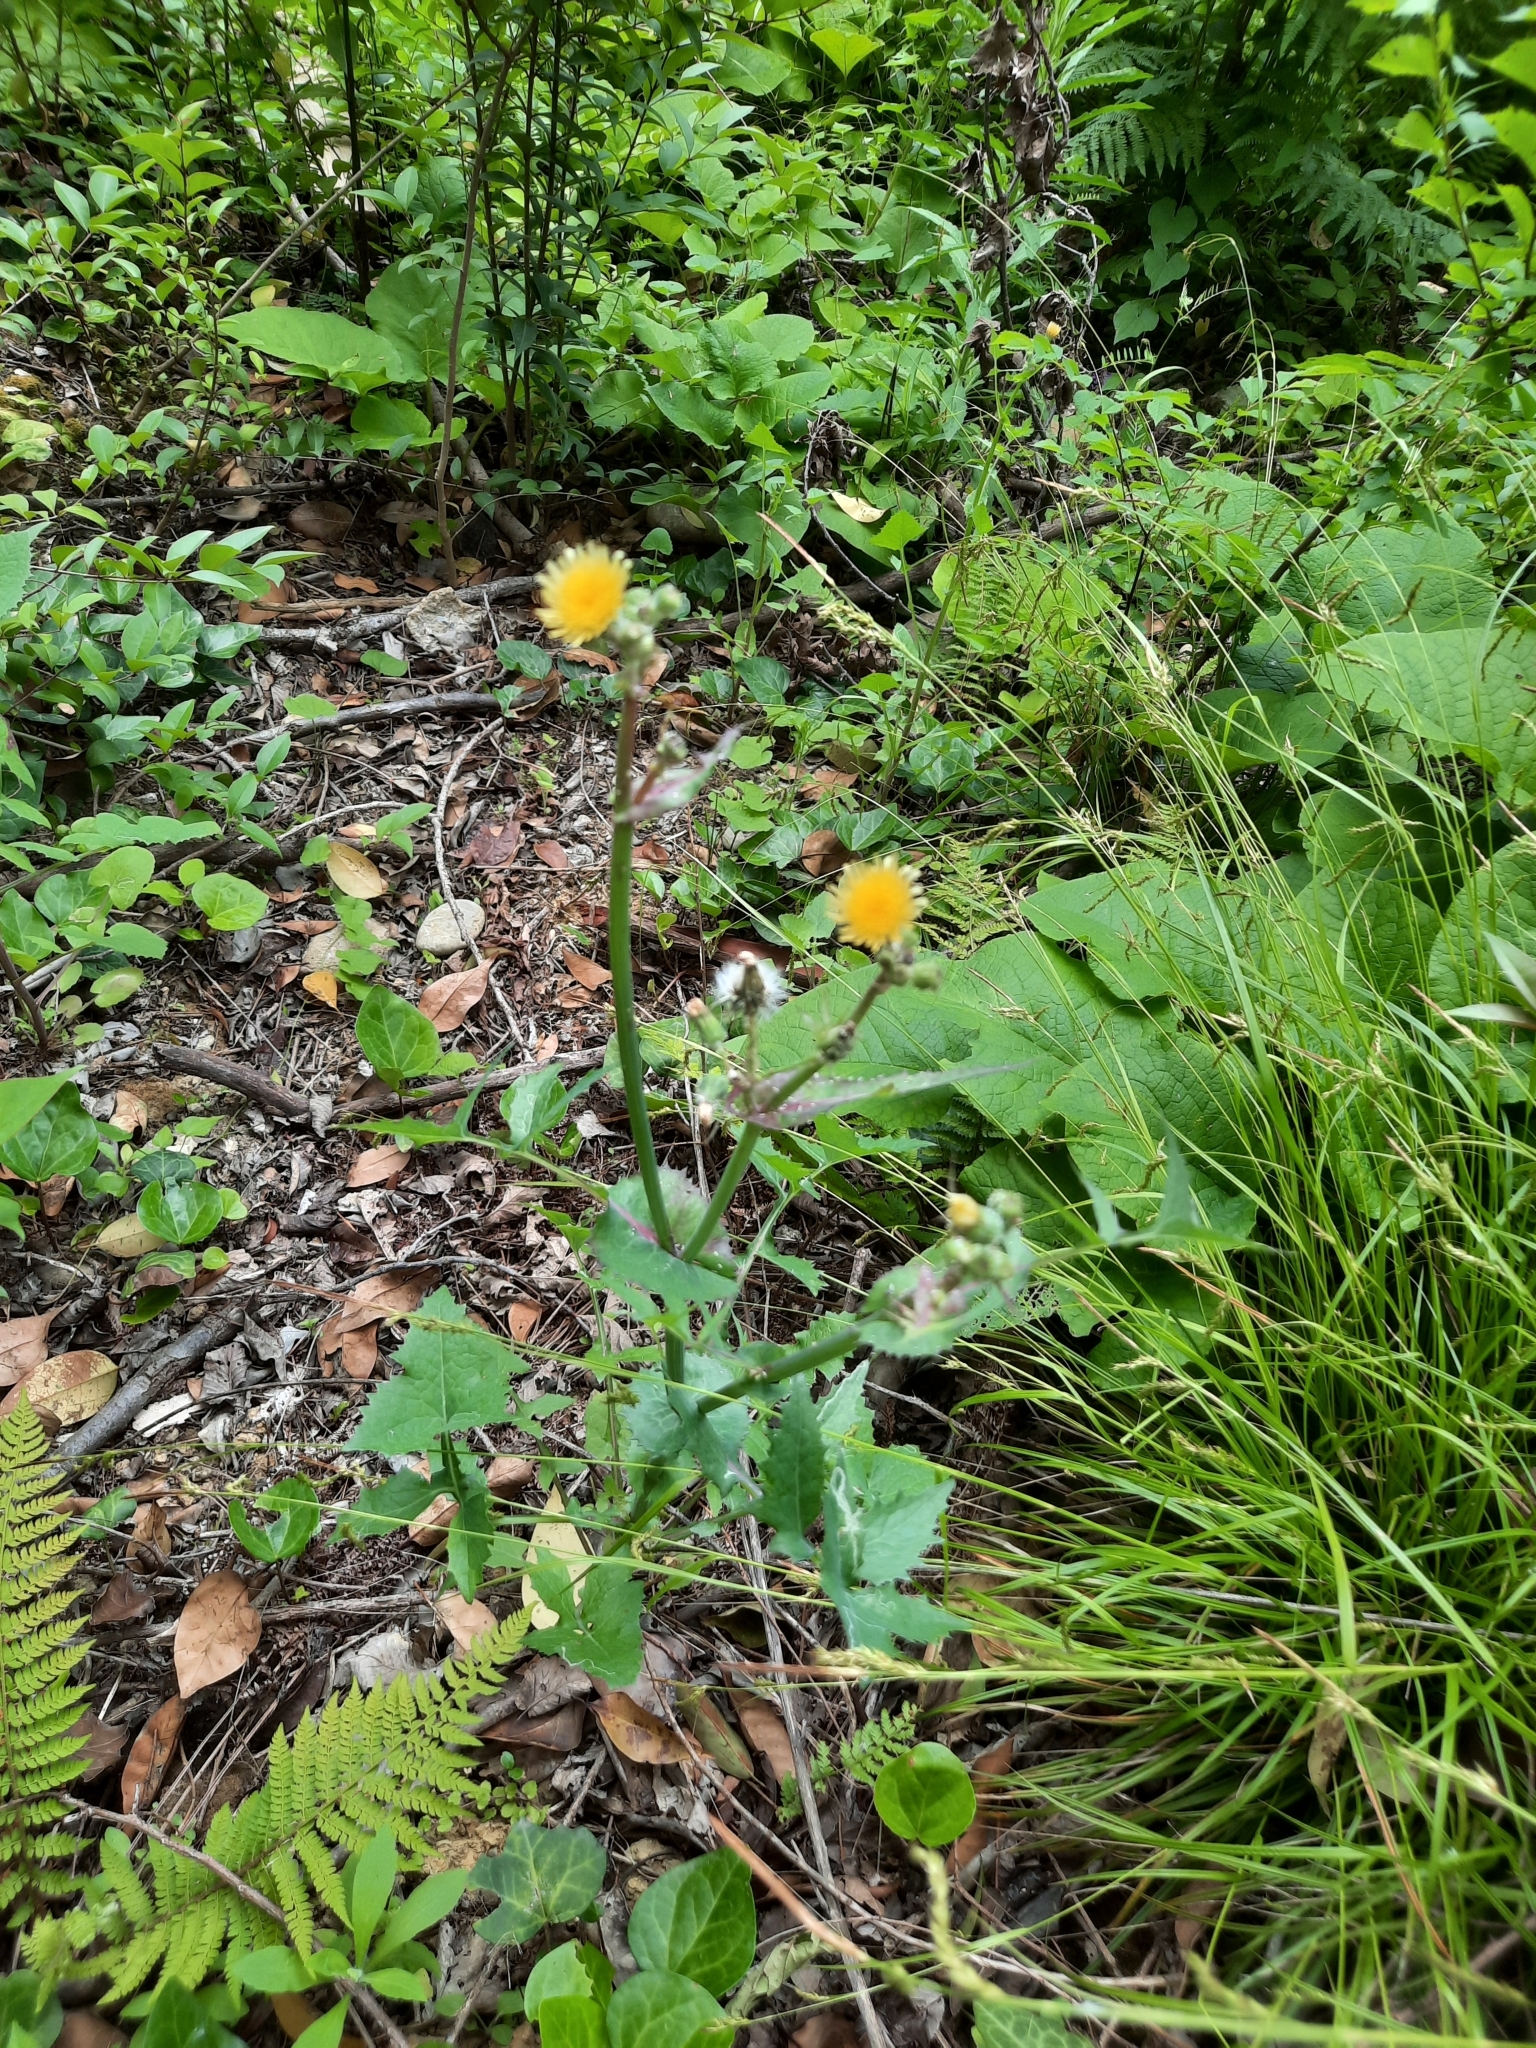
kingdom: Plantae
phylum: Tracheophyta
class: Magnoliopsida
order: Asterales
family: Asteraceae
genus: Sonchus
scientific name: Sonchus oleraceus
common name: Common sowthistle
